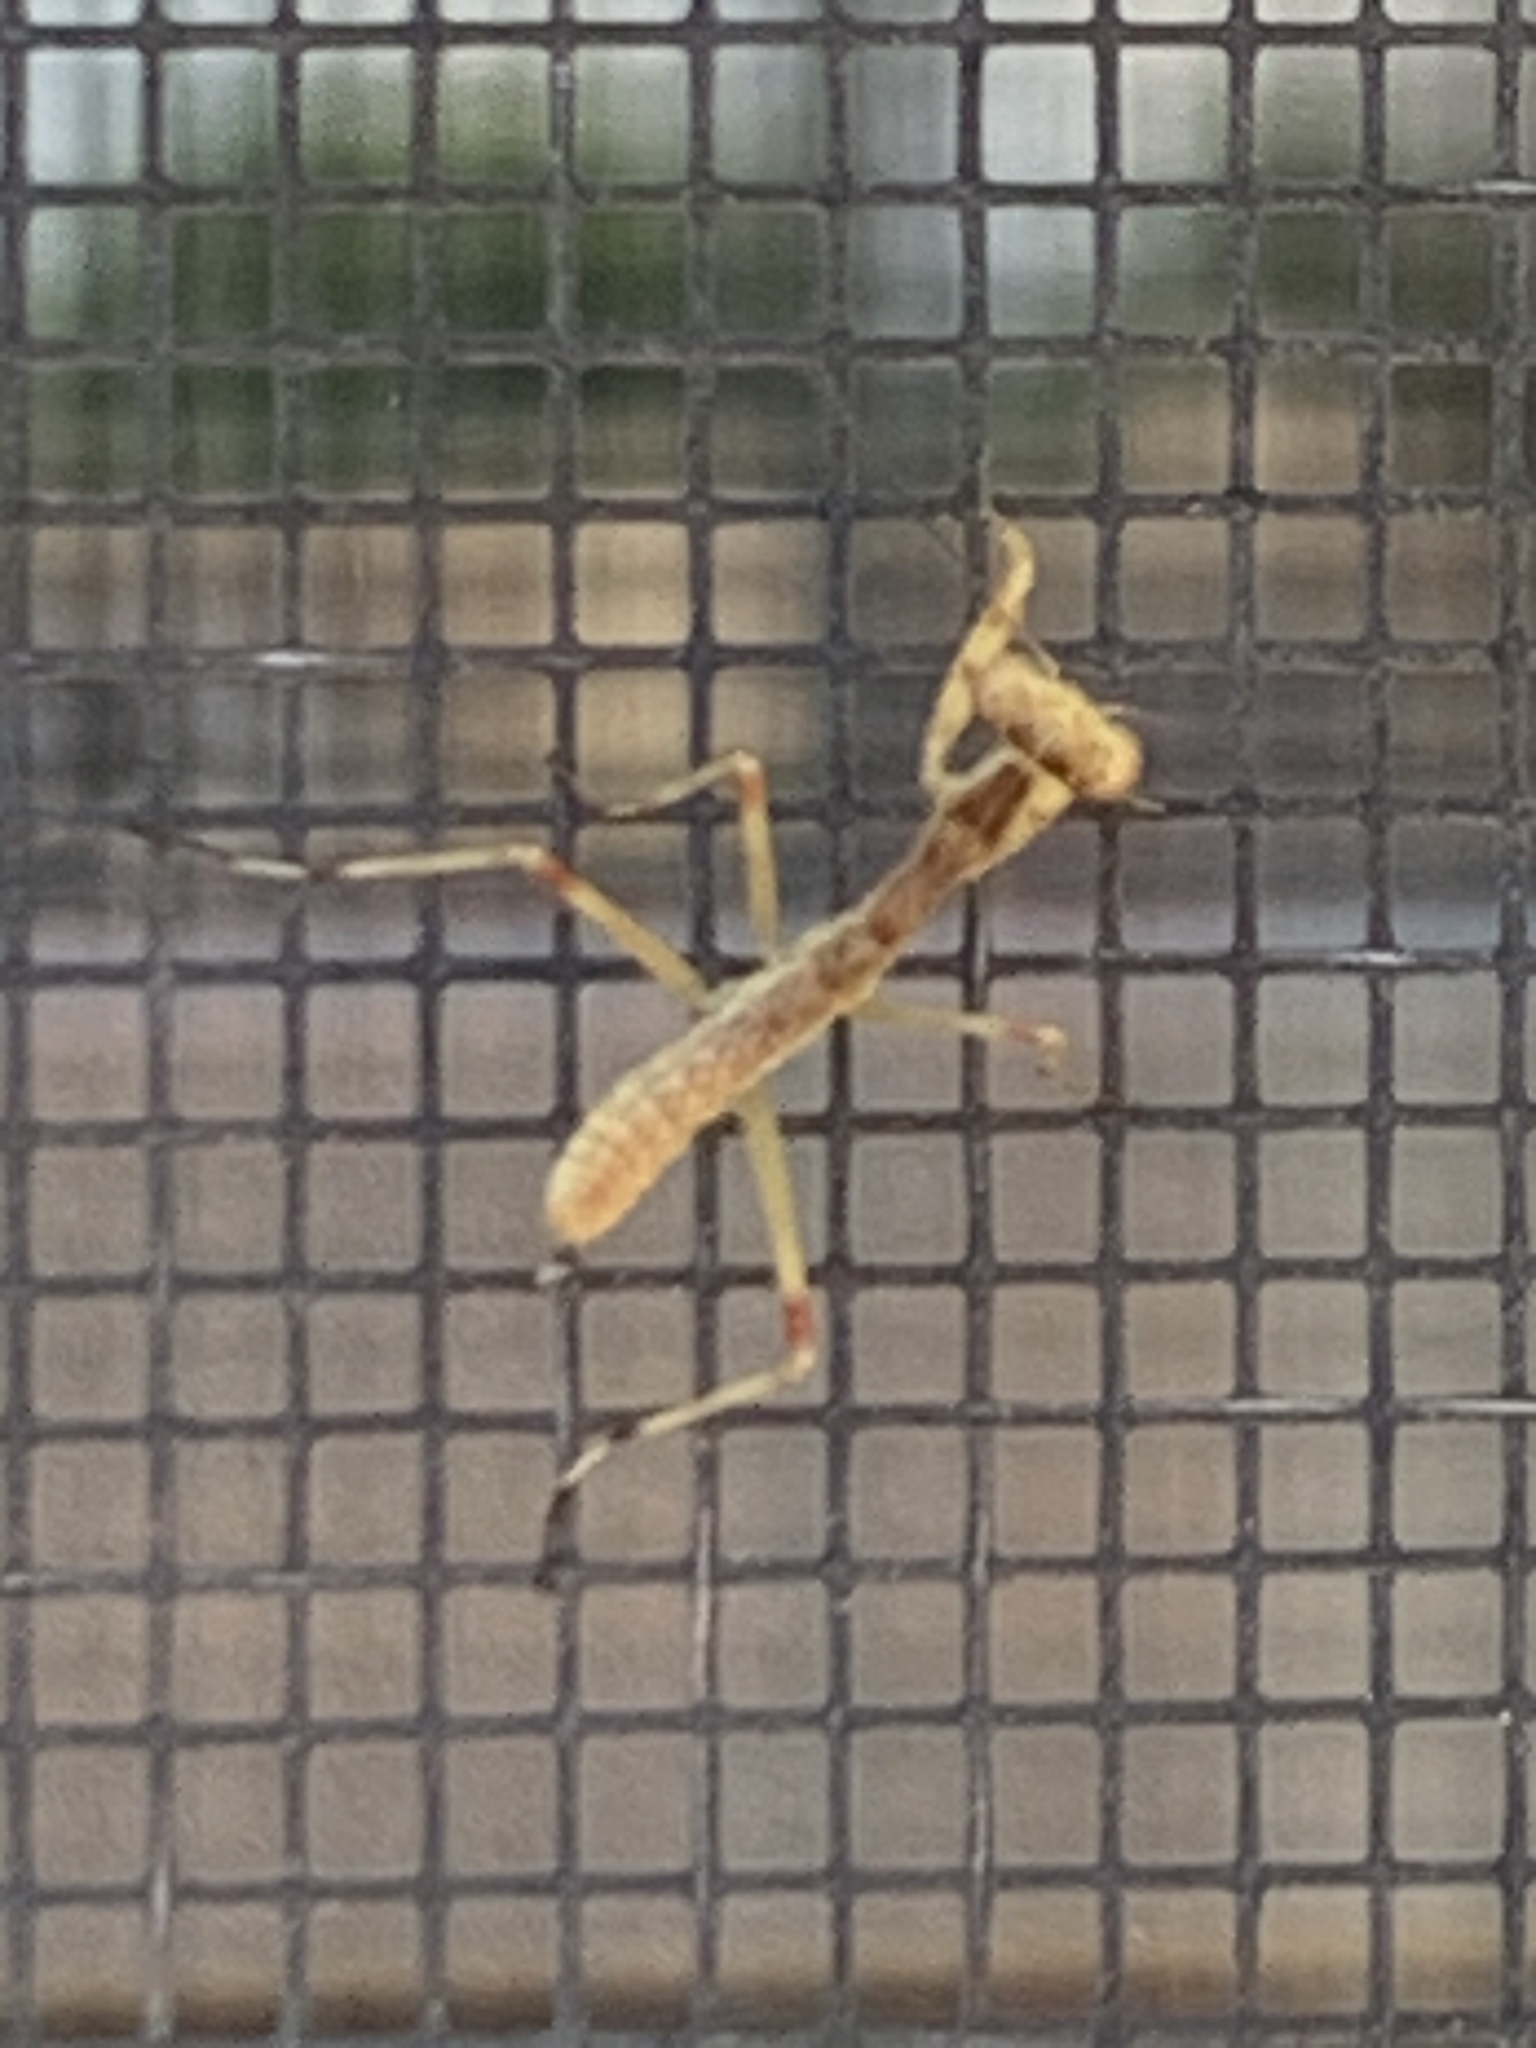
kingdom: Animalia
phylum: Arthropoda
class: Insecta
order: Mantodea
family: Mantidae
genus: Stagmomantis
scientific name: Stagmomantis californica
